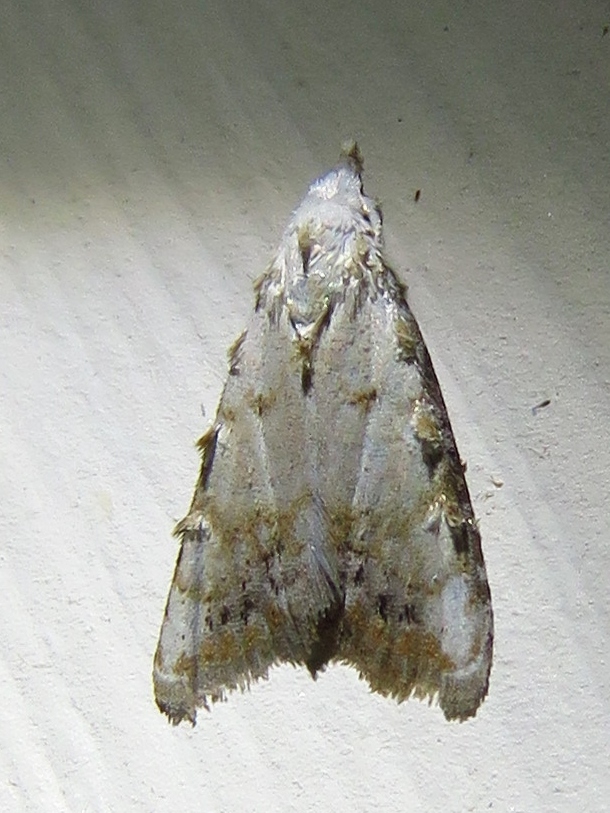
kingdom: Animalia
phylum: Arthropoda
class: Insecta
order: Lepidoptera
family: Nolidae
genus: Nola
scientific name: Nola cereella
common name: Sorghum webworm moth
